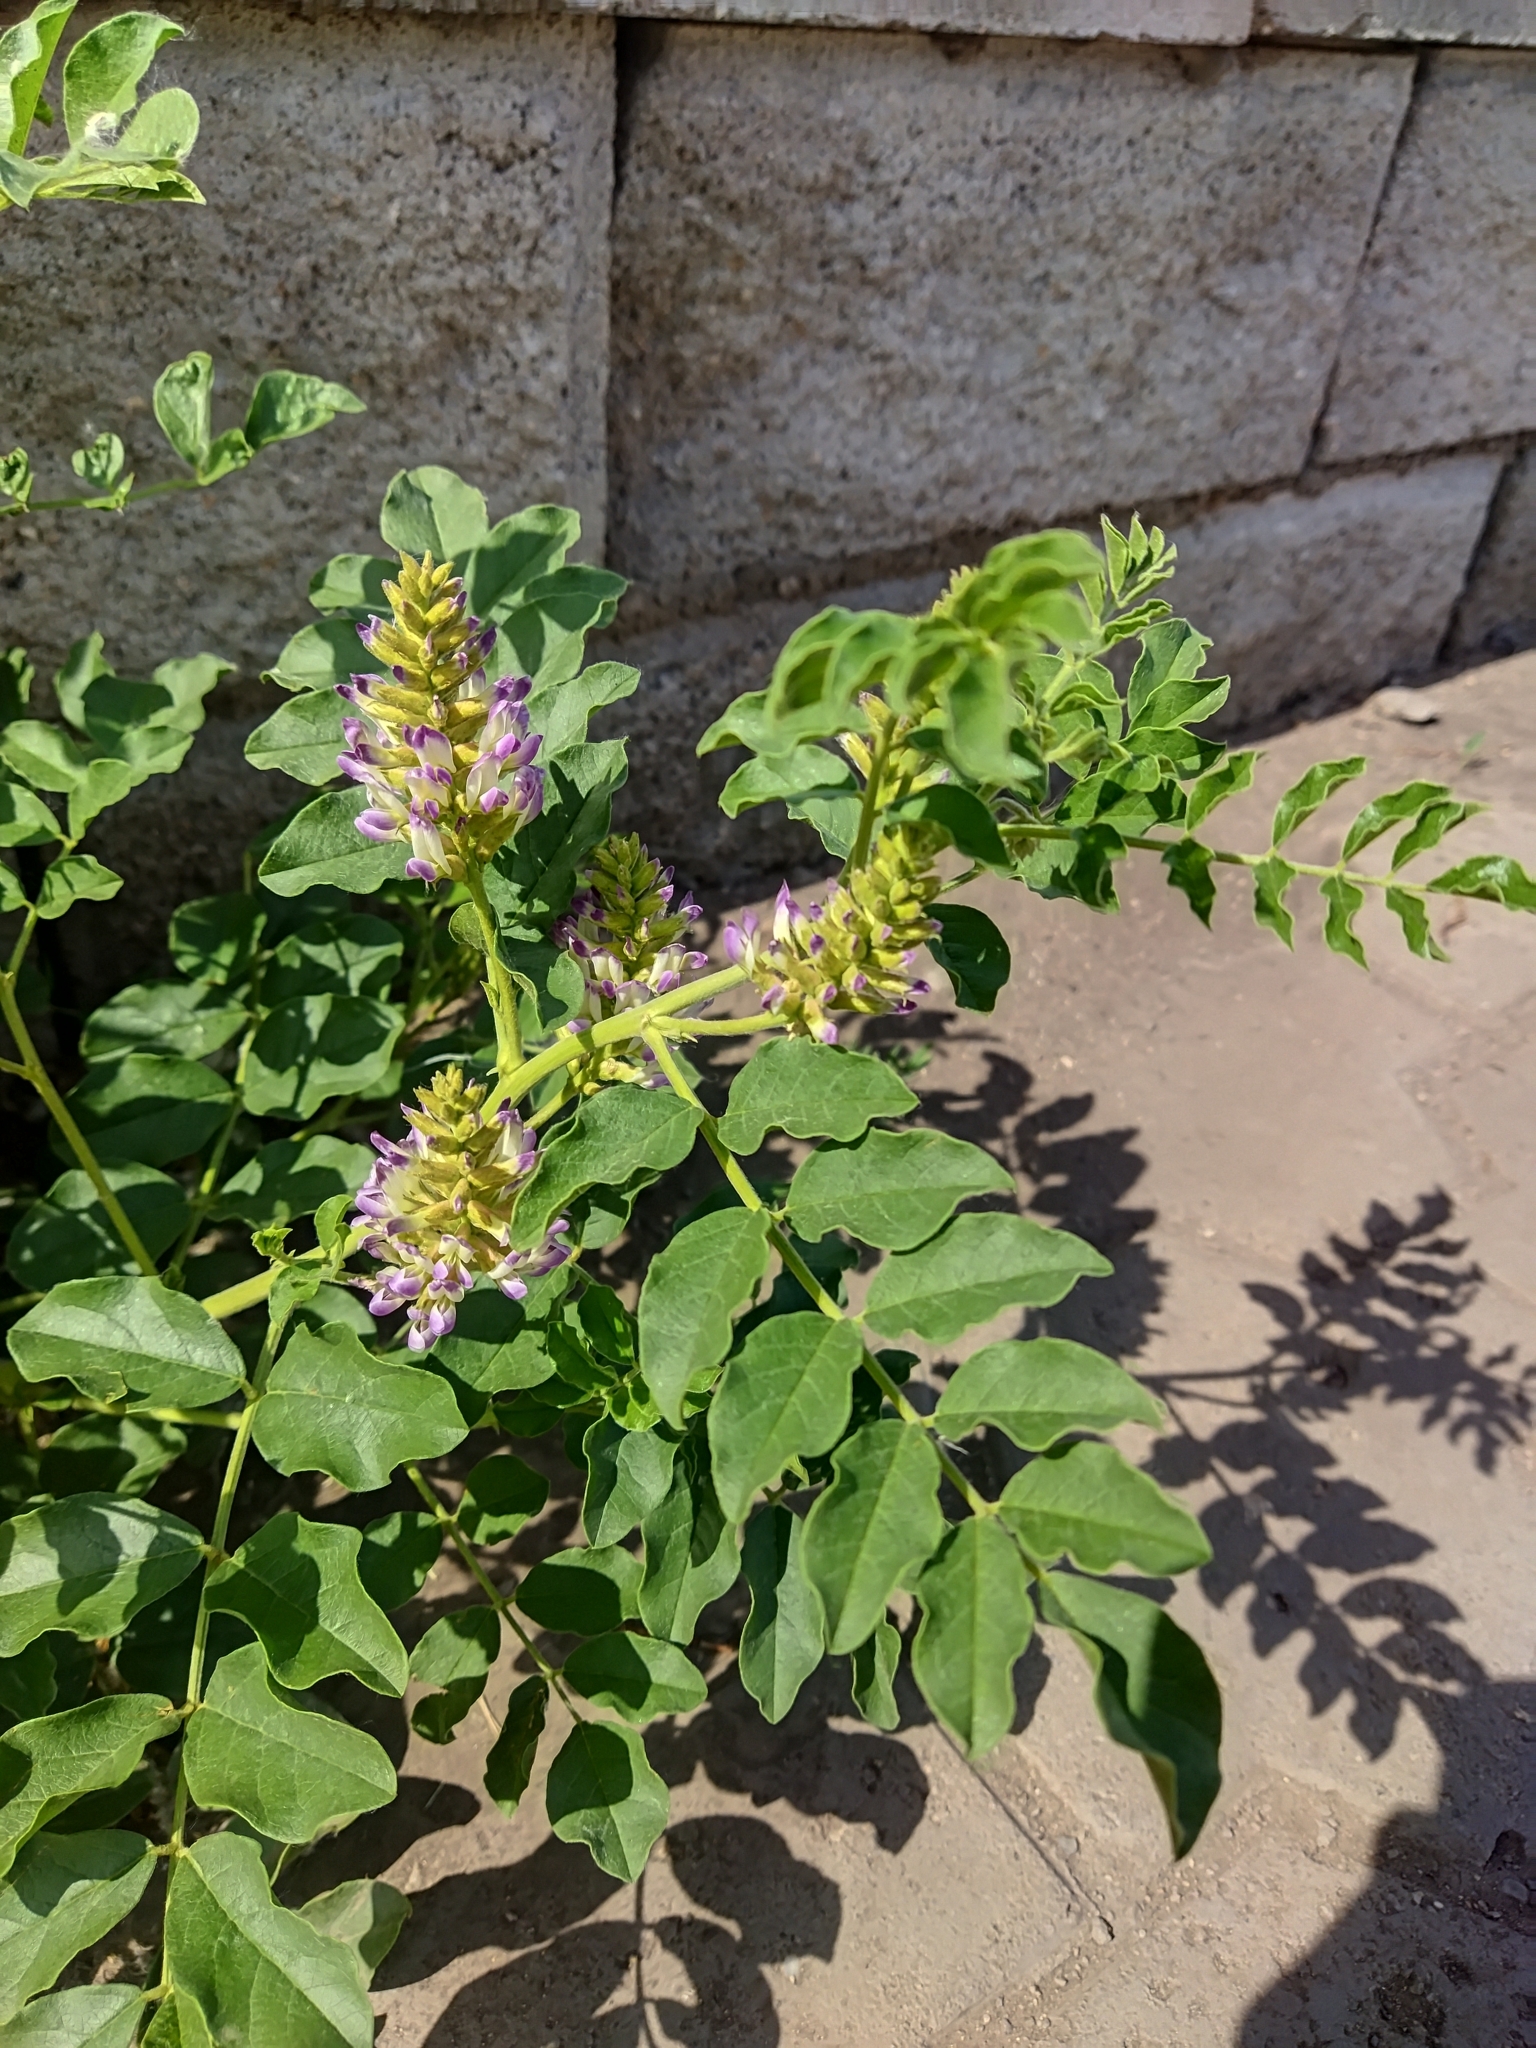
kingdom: Plantae
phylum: Tracheophyta
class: Magnoliopsida
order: Fabales
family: Fabaceae
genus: Glycyrrhiza
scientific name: Glycyrrhiza uralensis
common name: Chinese licorice
